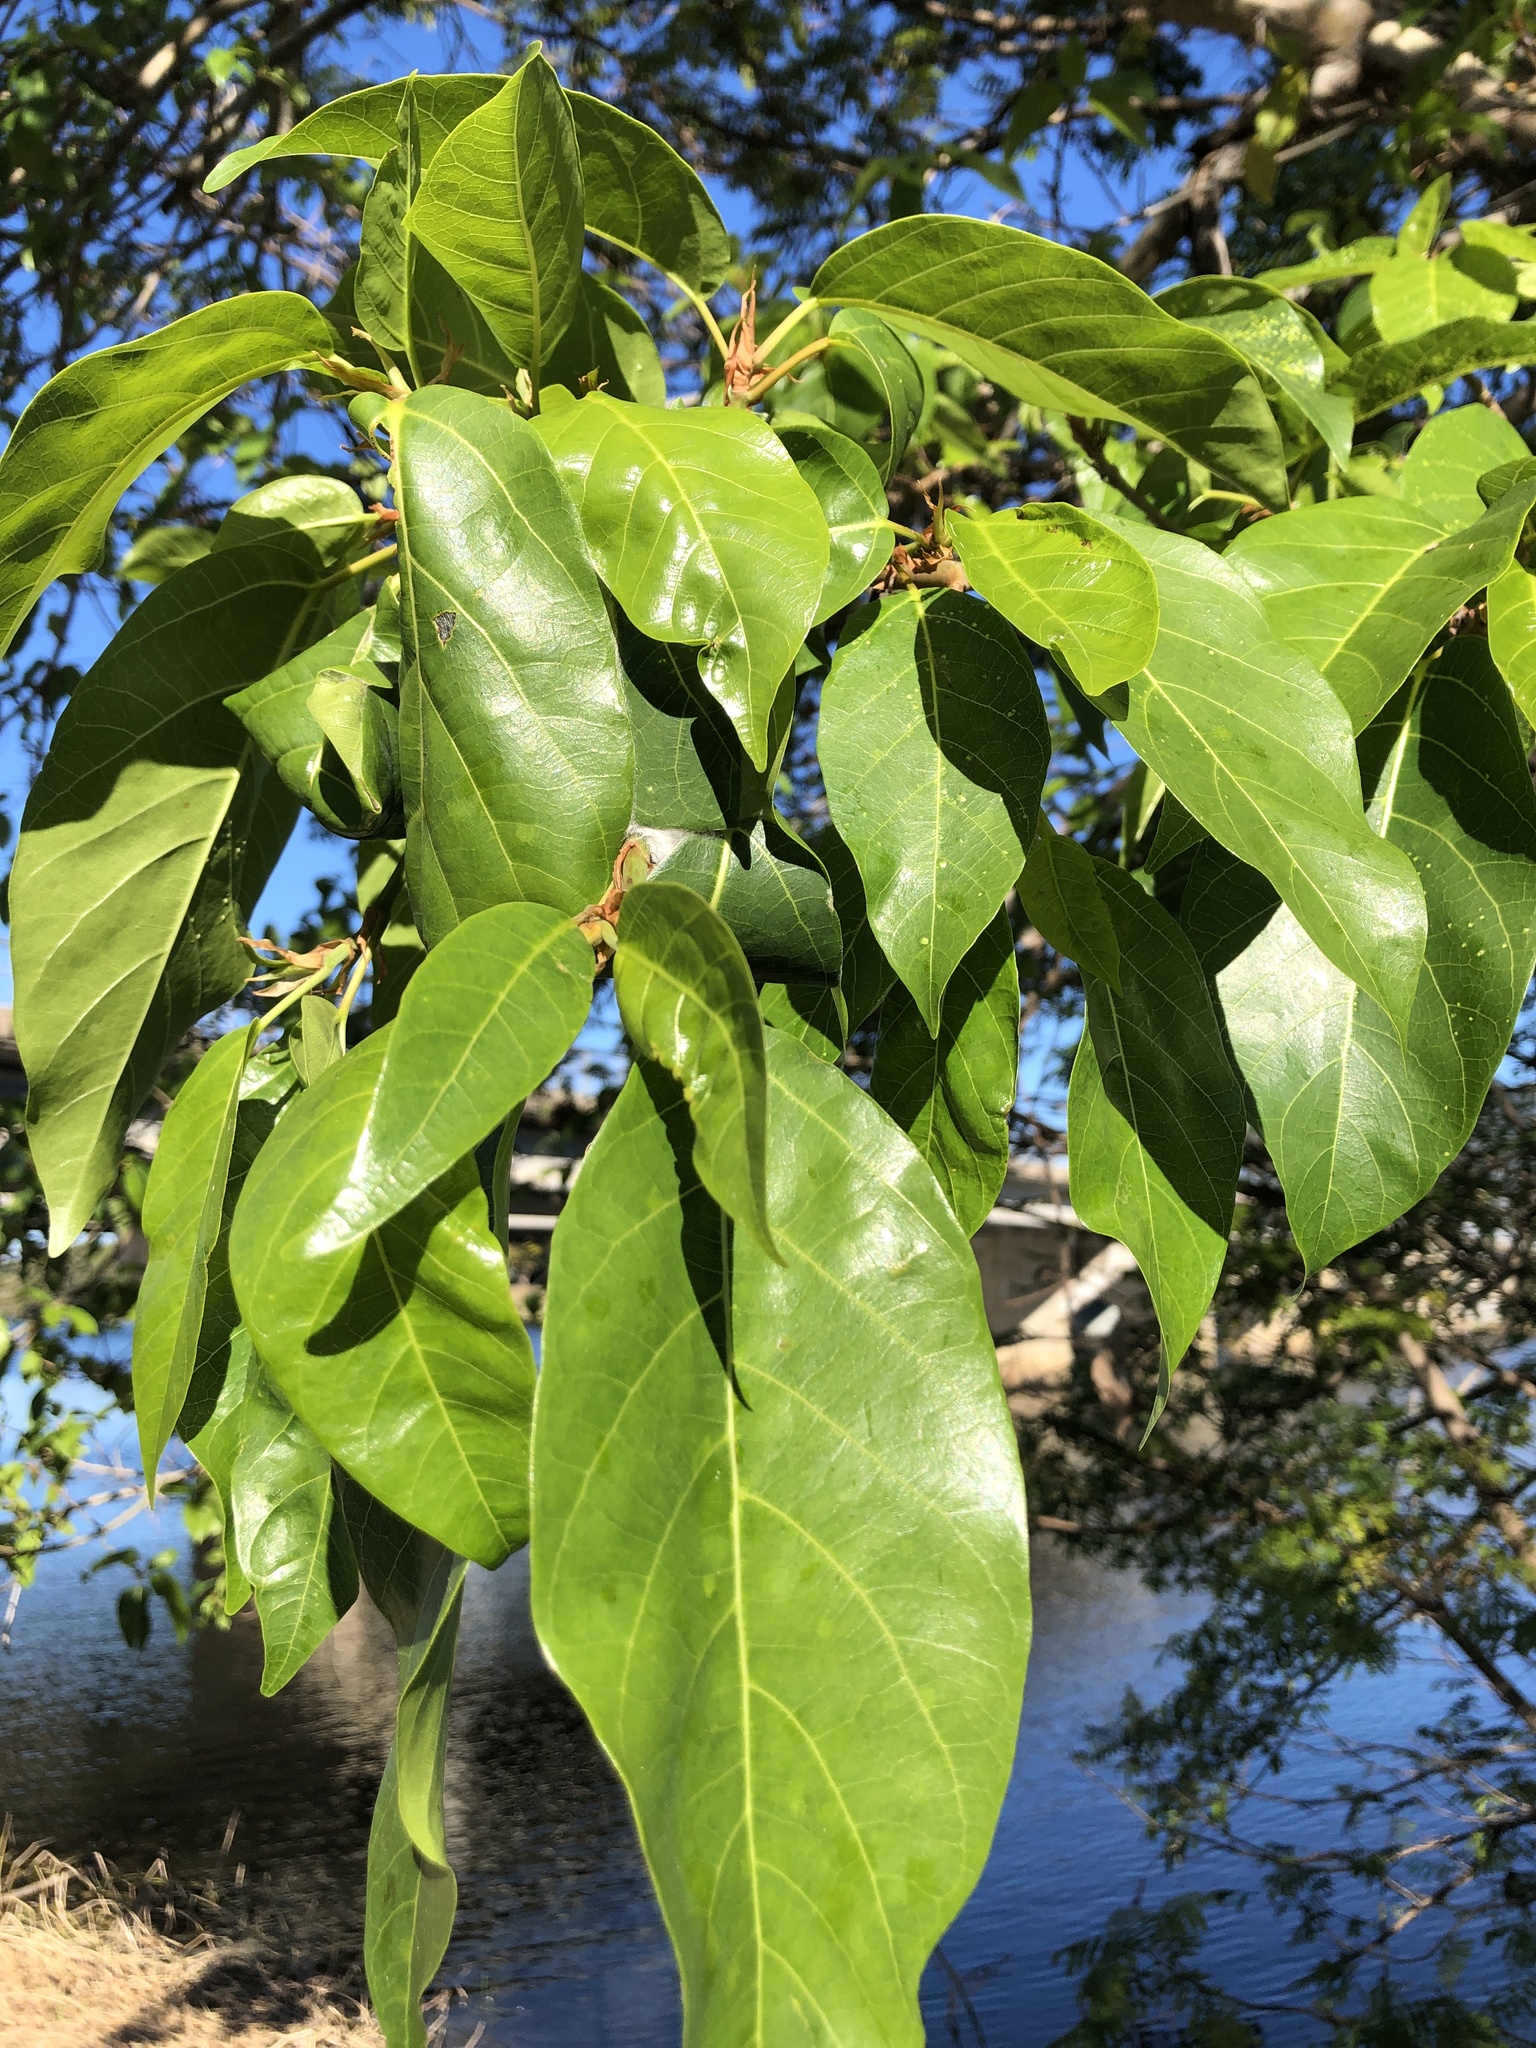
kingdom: Plantae
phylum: Tracheophyta
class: Magnoliopsida
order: Rosales
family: Moraceae
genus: Ficus
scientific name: Ficus racemosa
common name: Cluster fig
